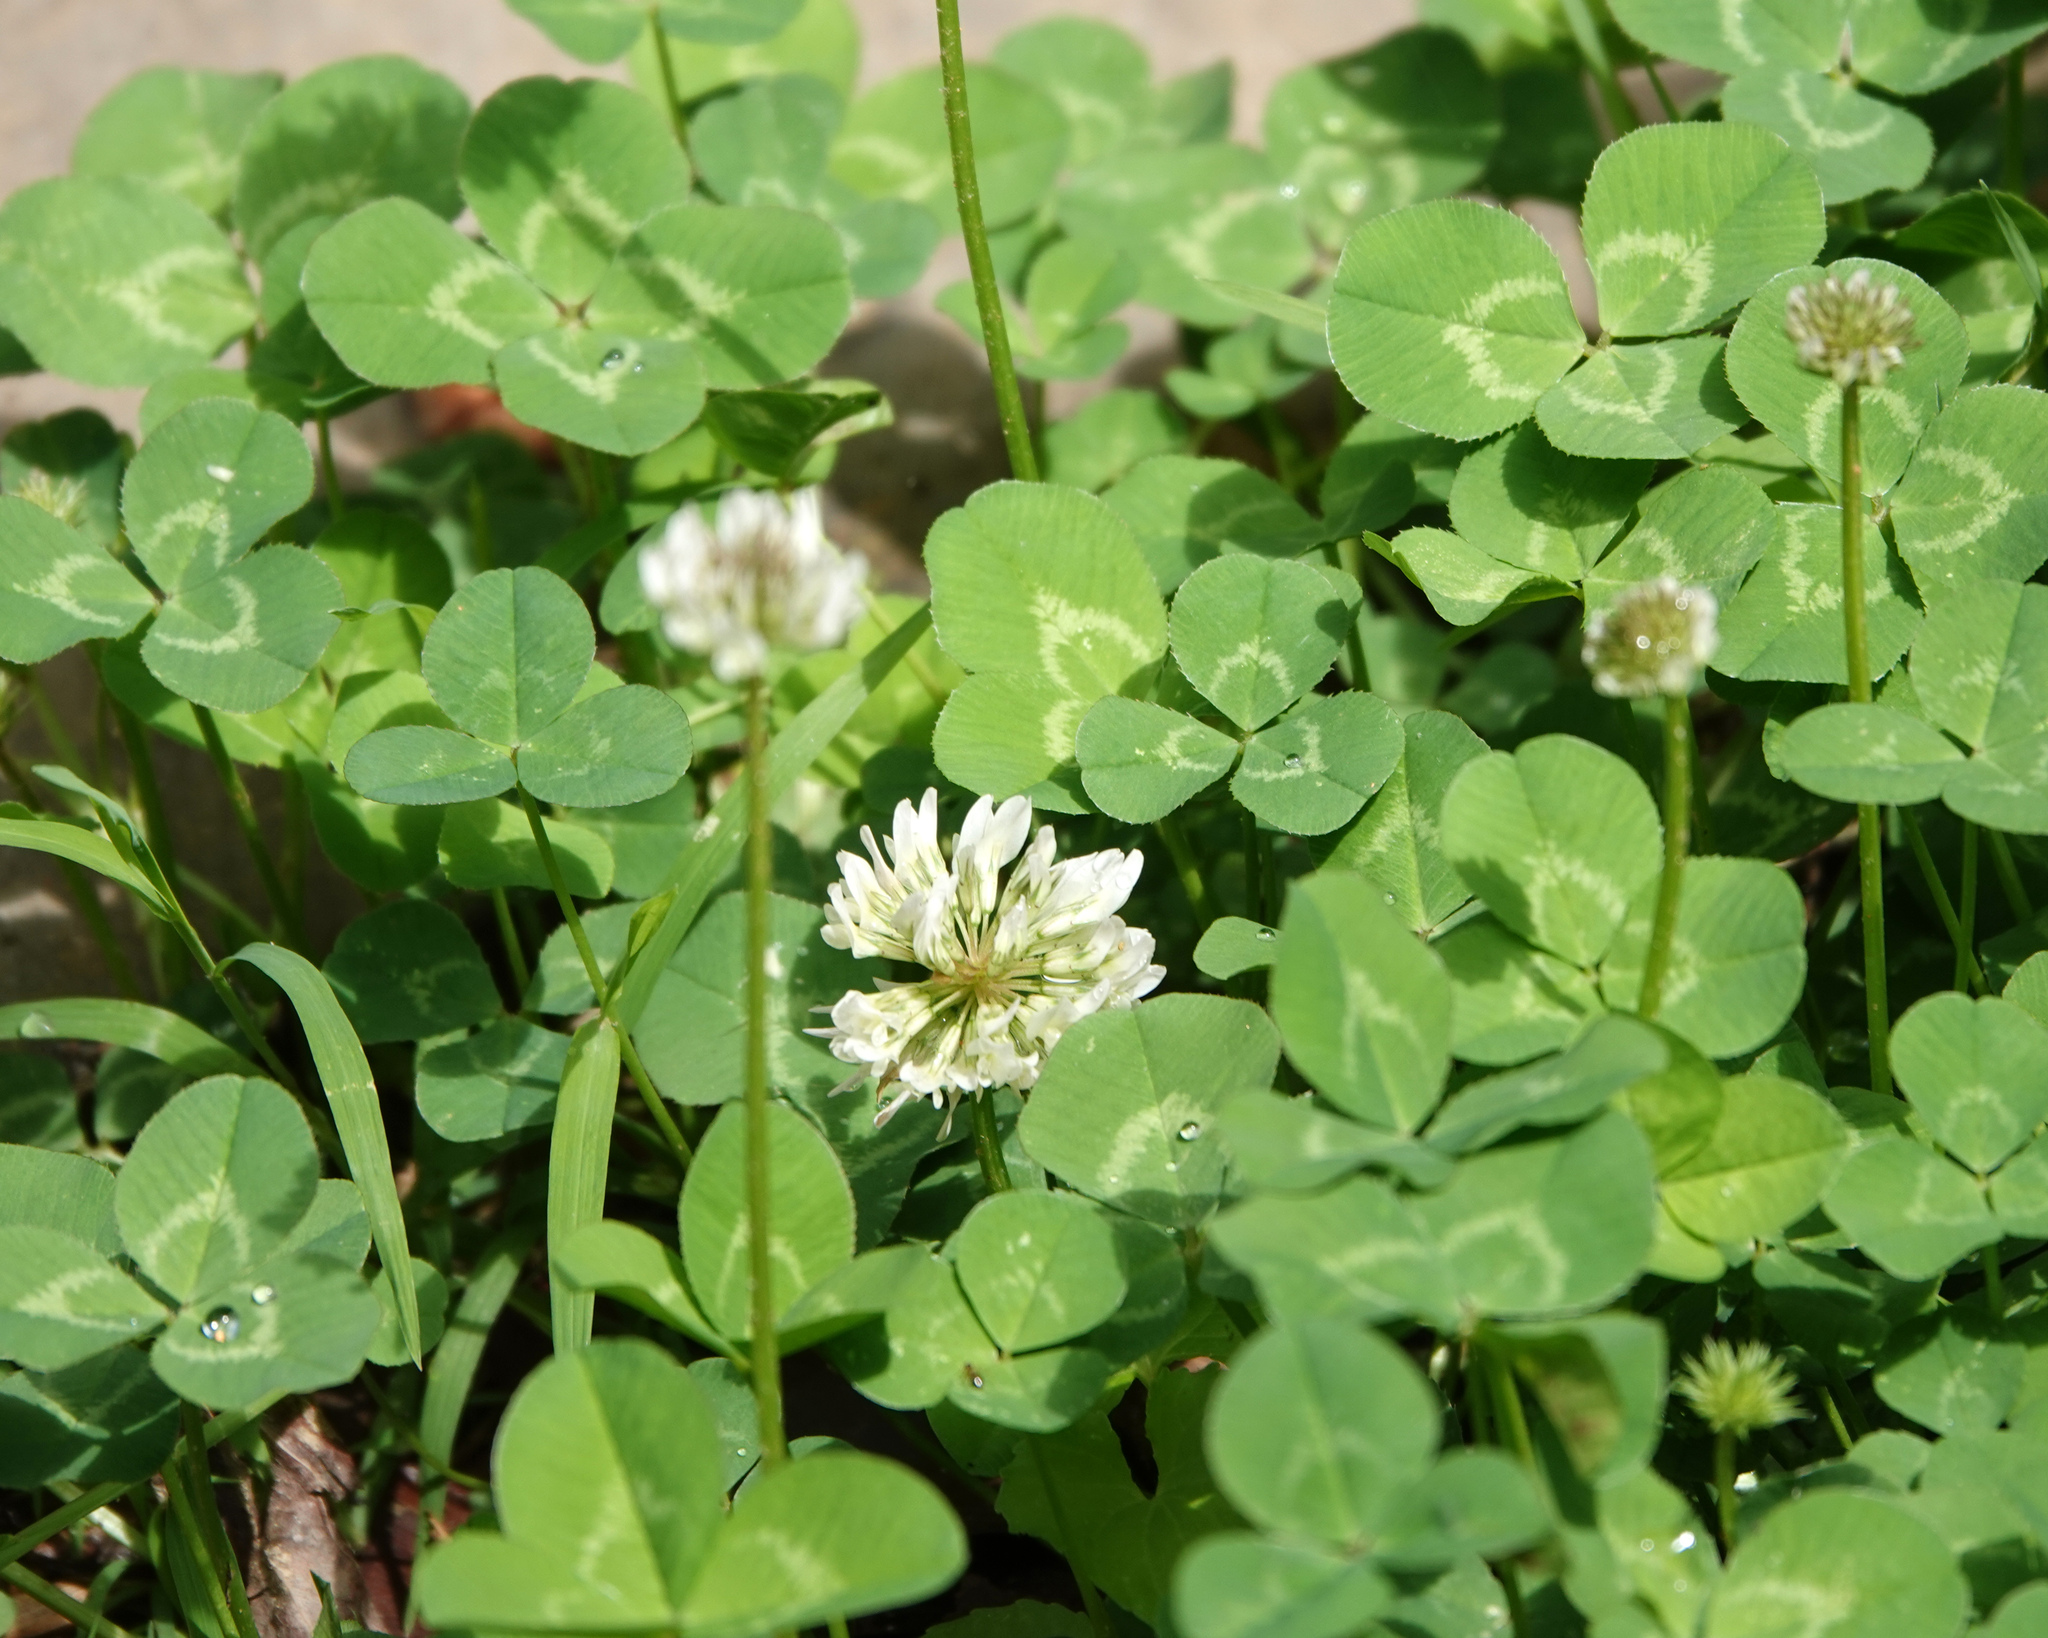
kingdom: Plantae
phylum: Tracheophyta
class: Magnoliopsida
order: Fabales
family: Fabaceae
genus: Trifolium
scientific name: Trifolium repens
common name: White clover
